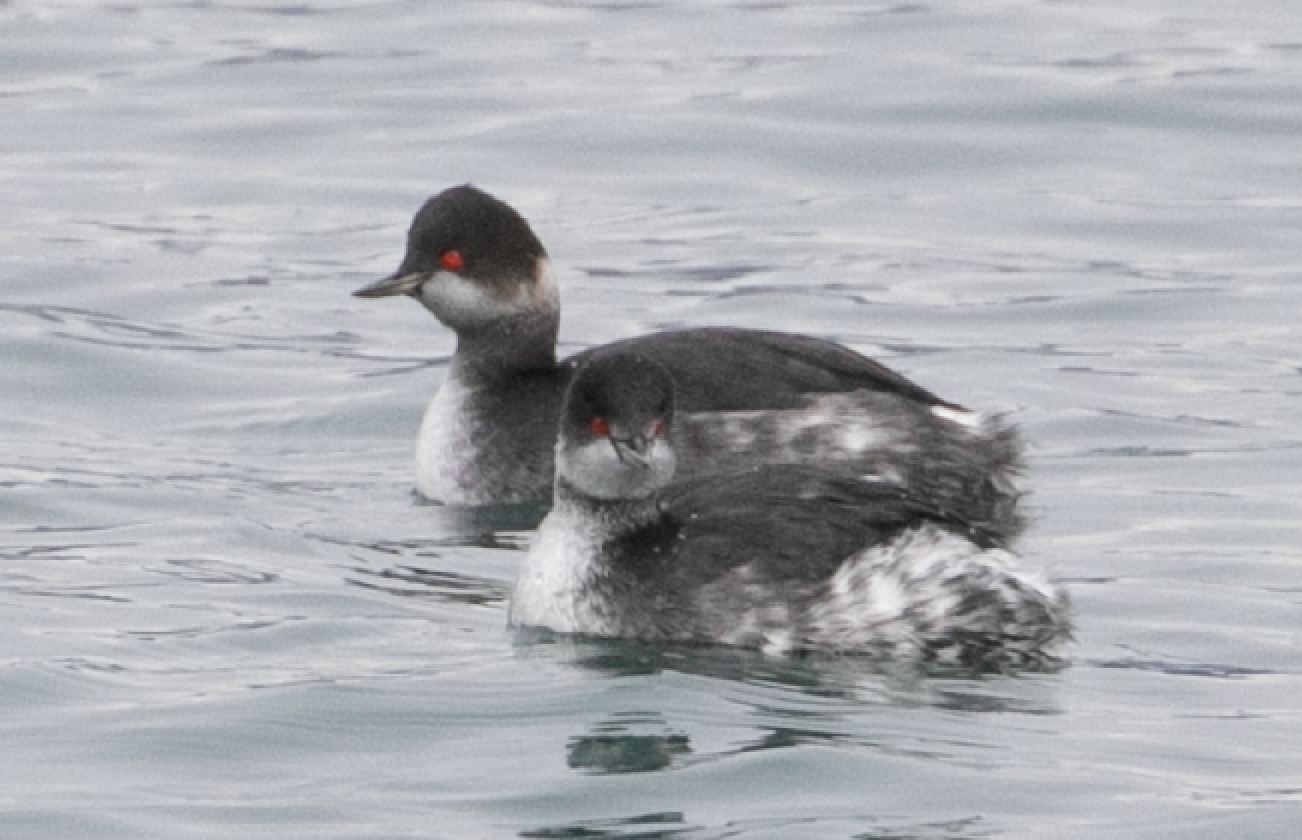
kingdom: Animalia
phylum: Chordata
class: Aves
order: Podicipediformes
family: Podicipedidae
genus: Podiceps
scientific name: Podiceps nigricollis
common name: Black-necked grebe
